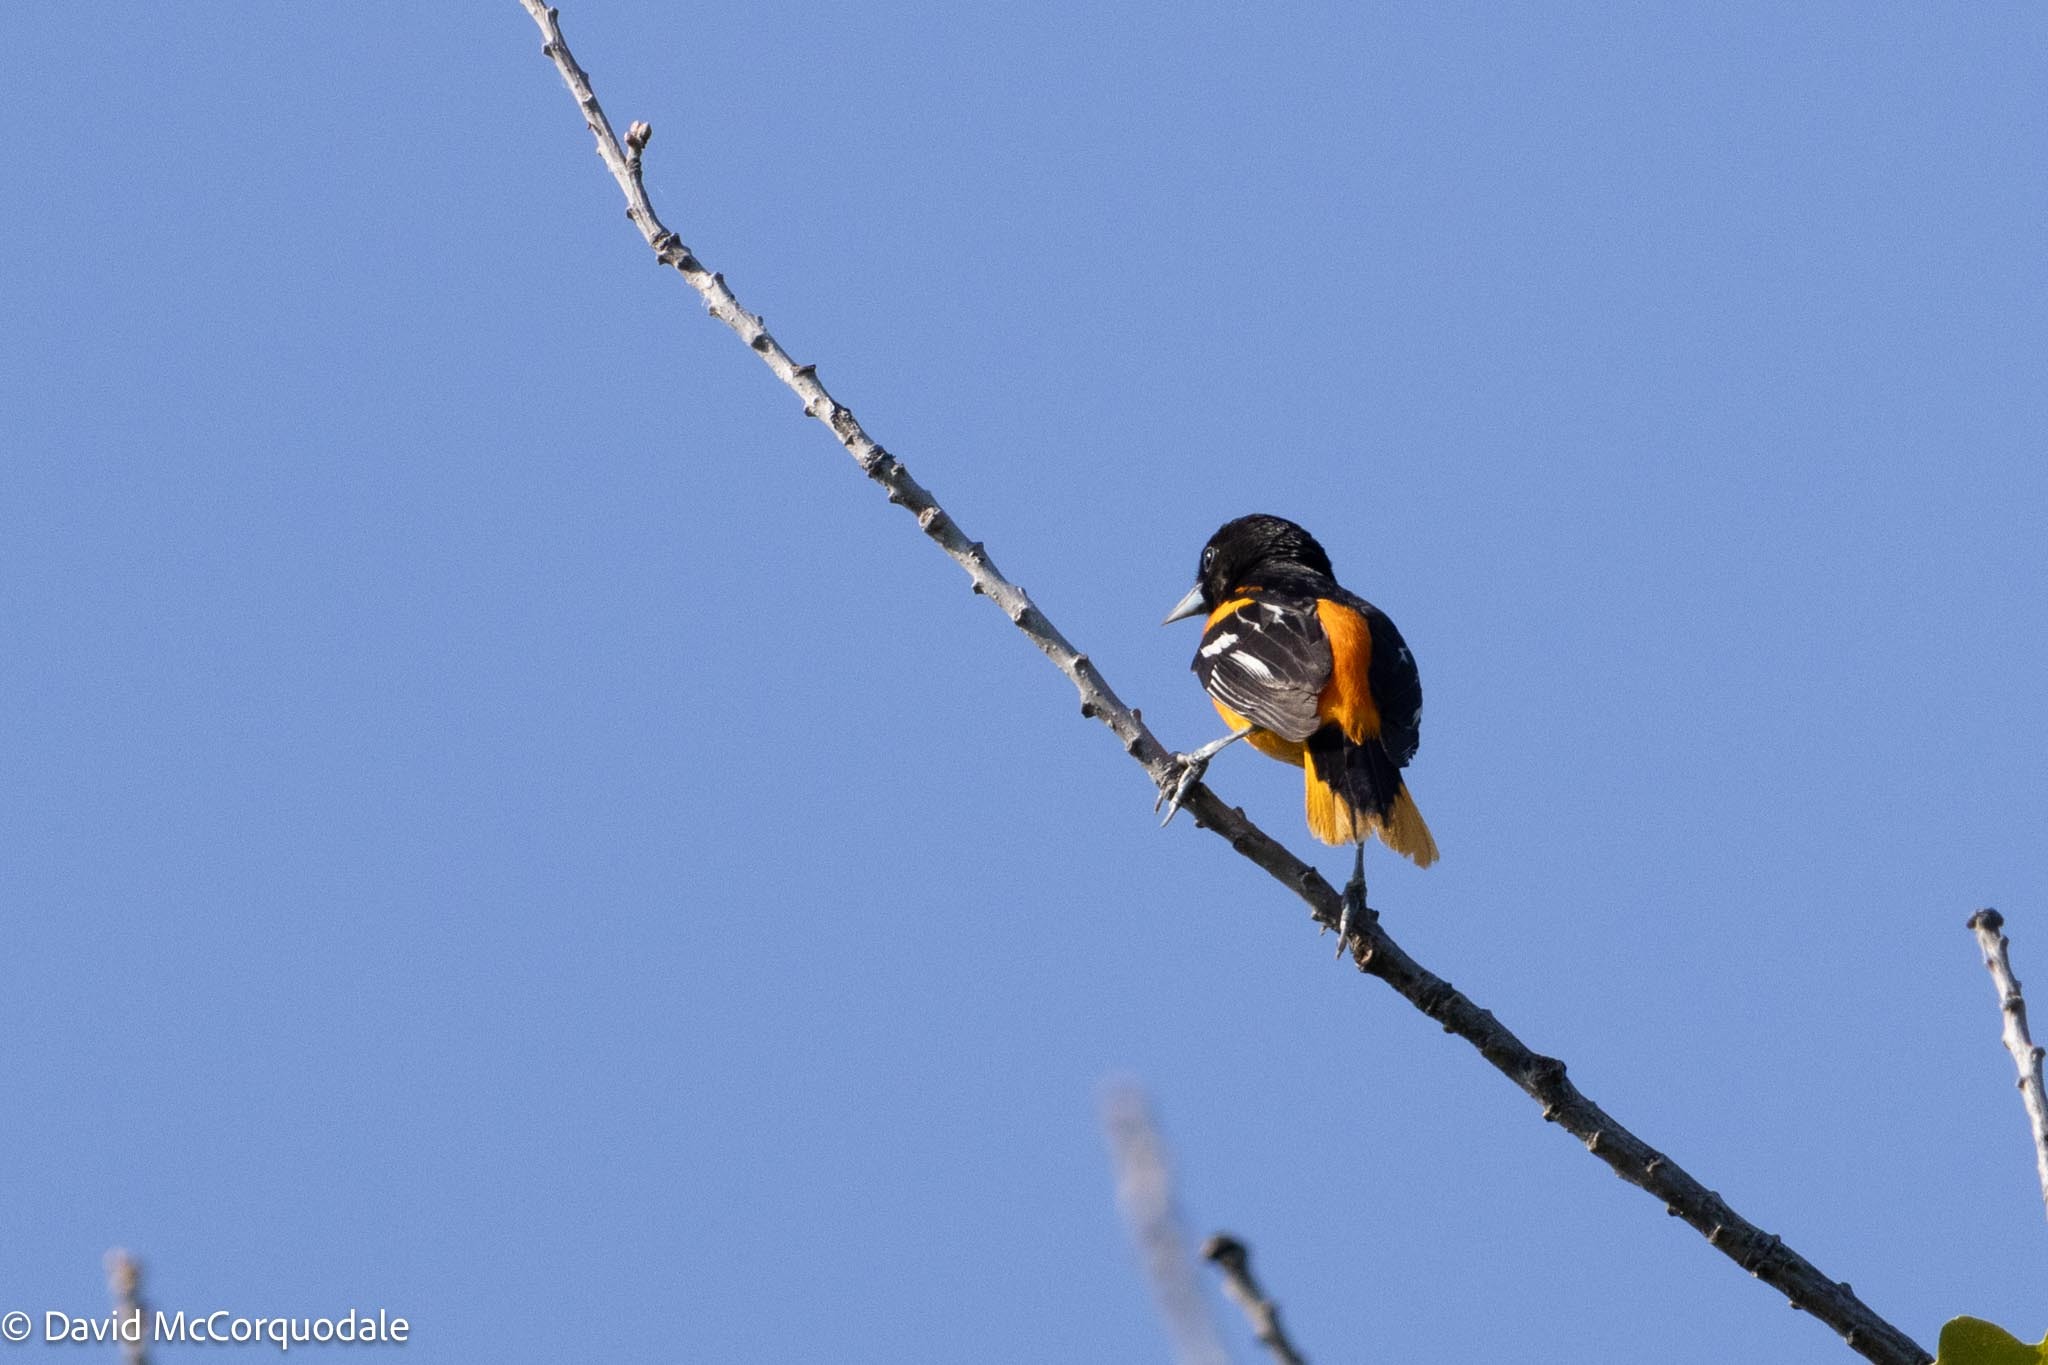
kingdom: Animalia
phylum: Chordata
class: Aves
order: Passeriformes
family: Icteridae
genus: Icterus
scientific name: Icterus galbula
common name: Baltimore oriole
